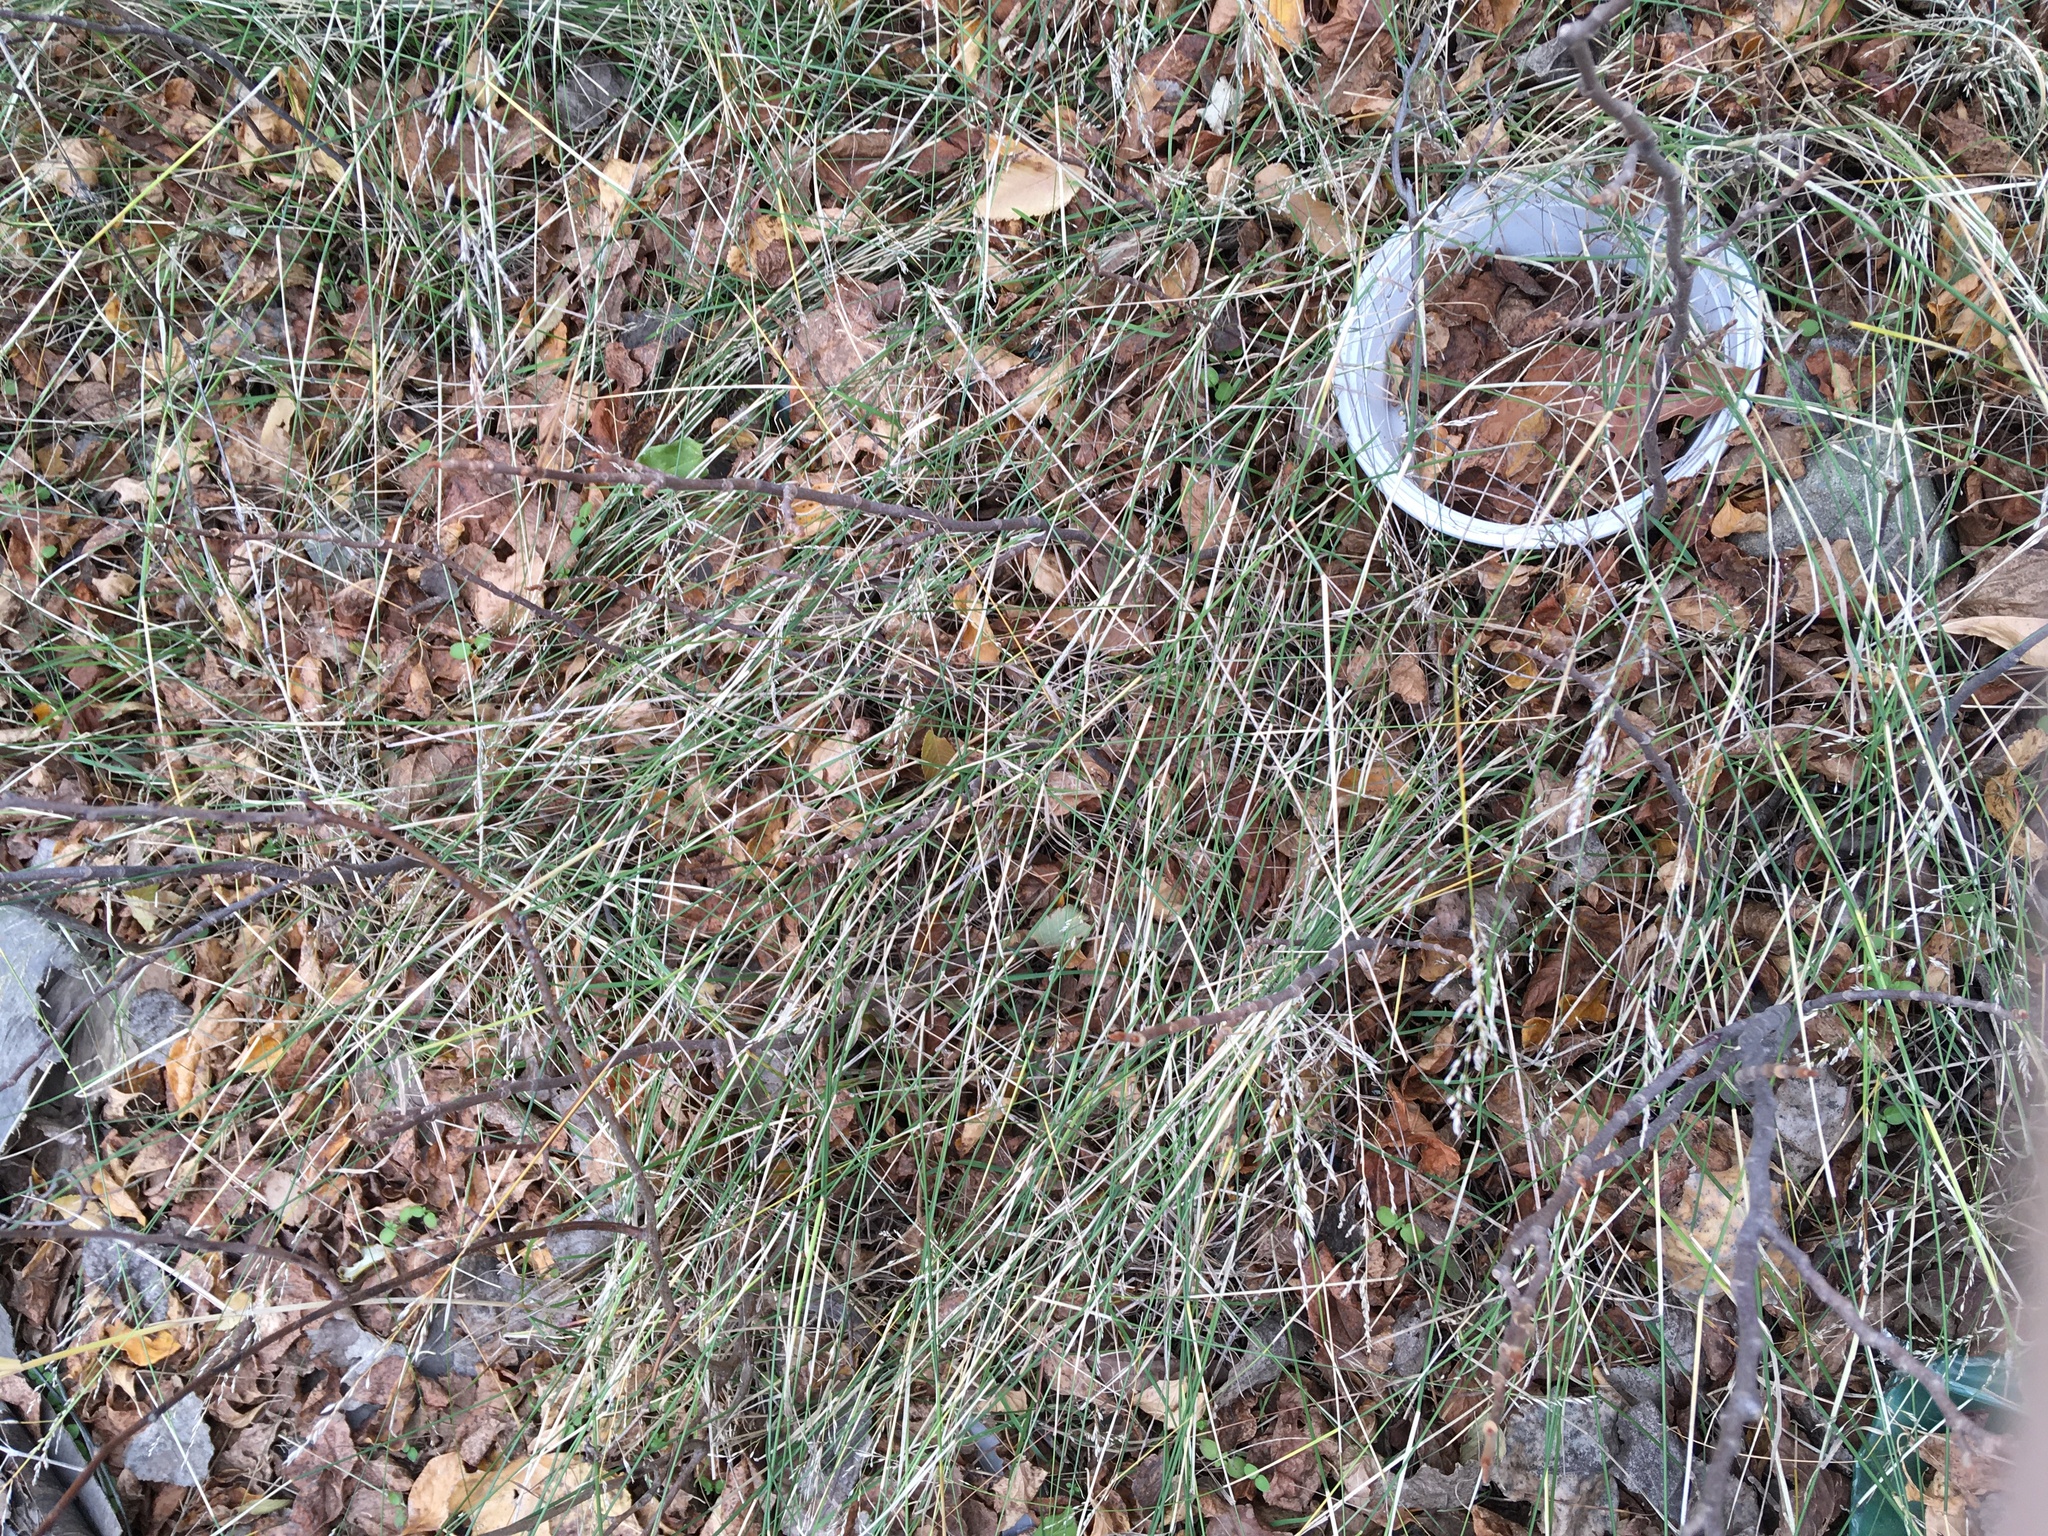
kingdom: Plantae
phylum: Tracheophyta
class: Liliopsida
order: Poales
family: Poaceae
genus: Poa
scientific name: Poa nemoralis
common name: Wood bluegrass
